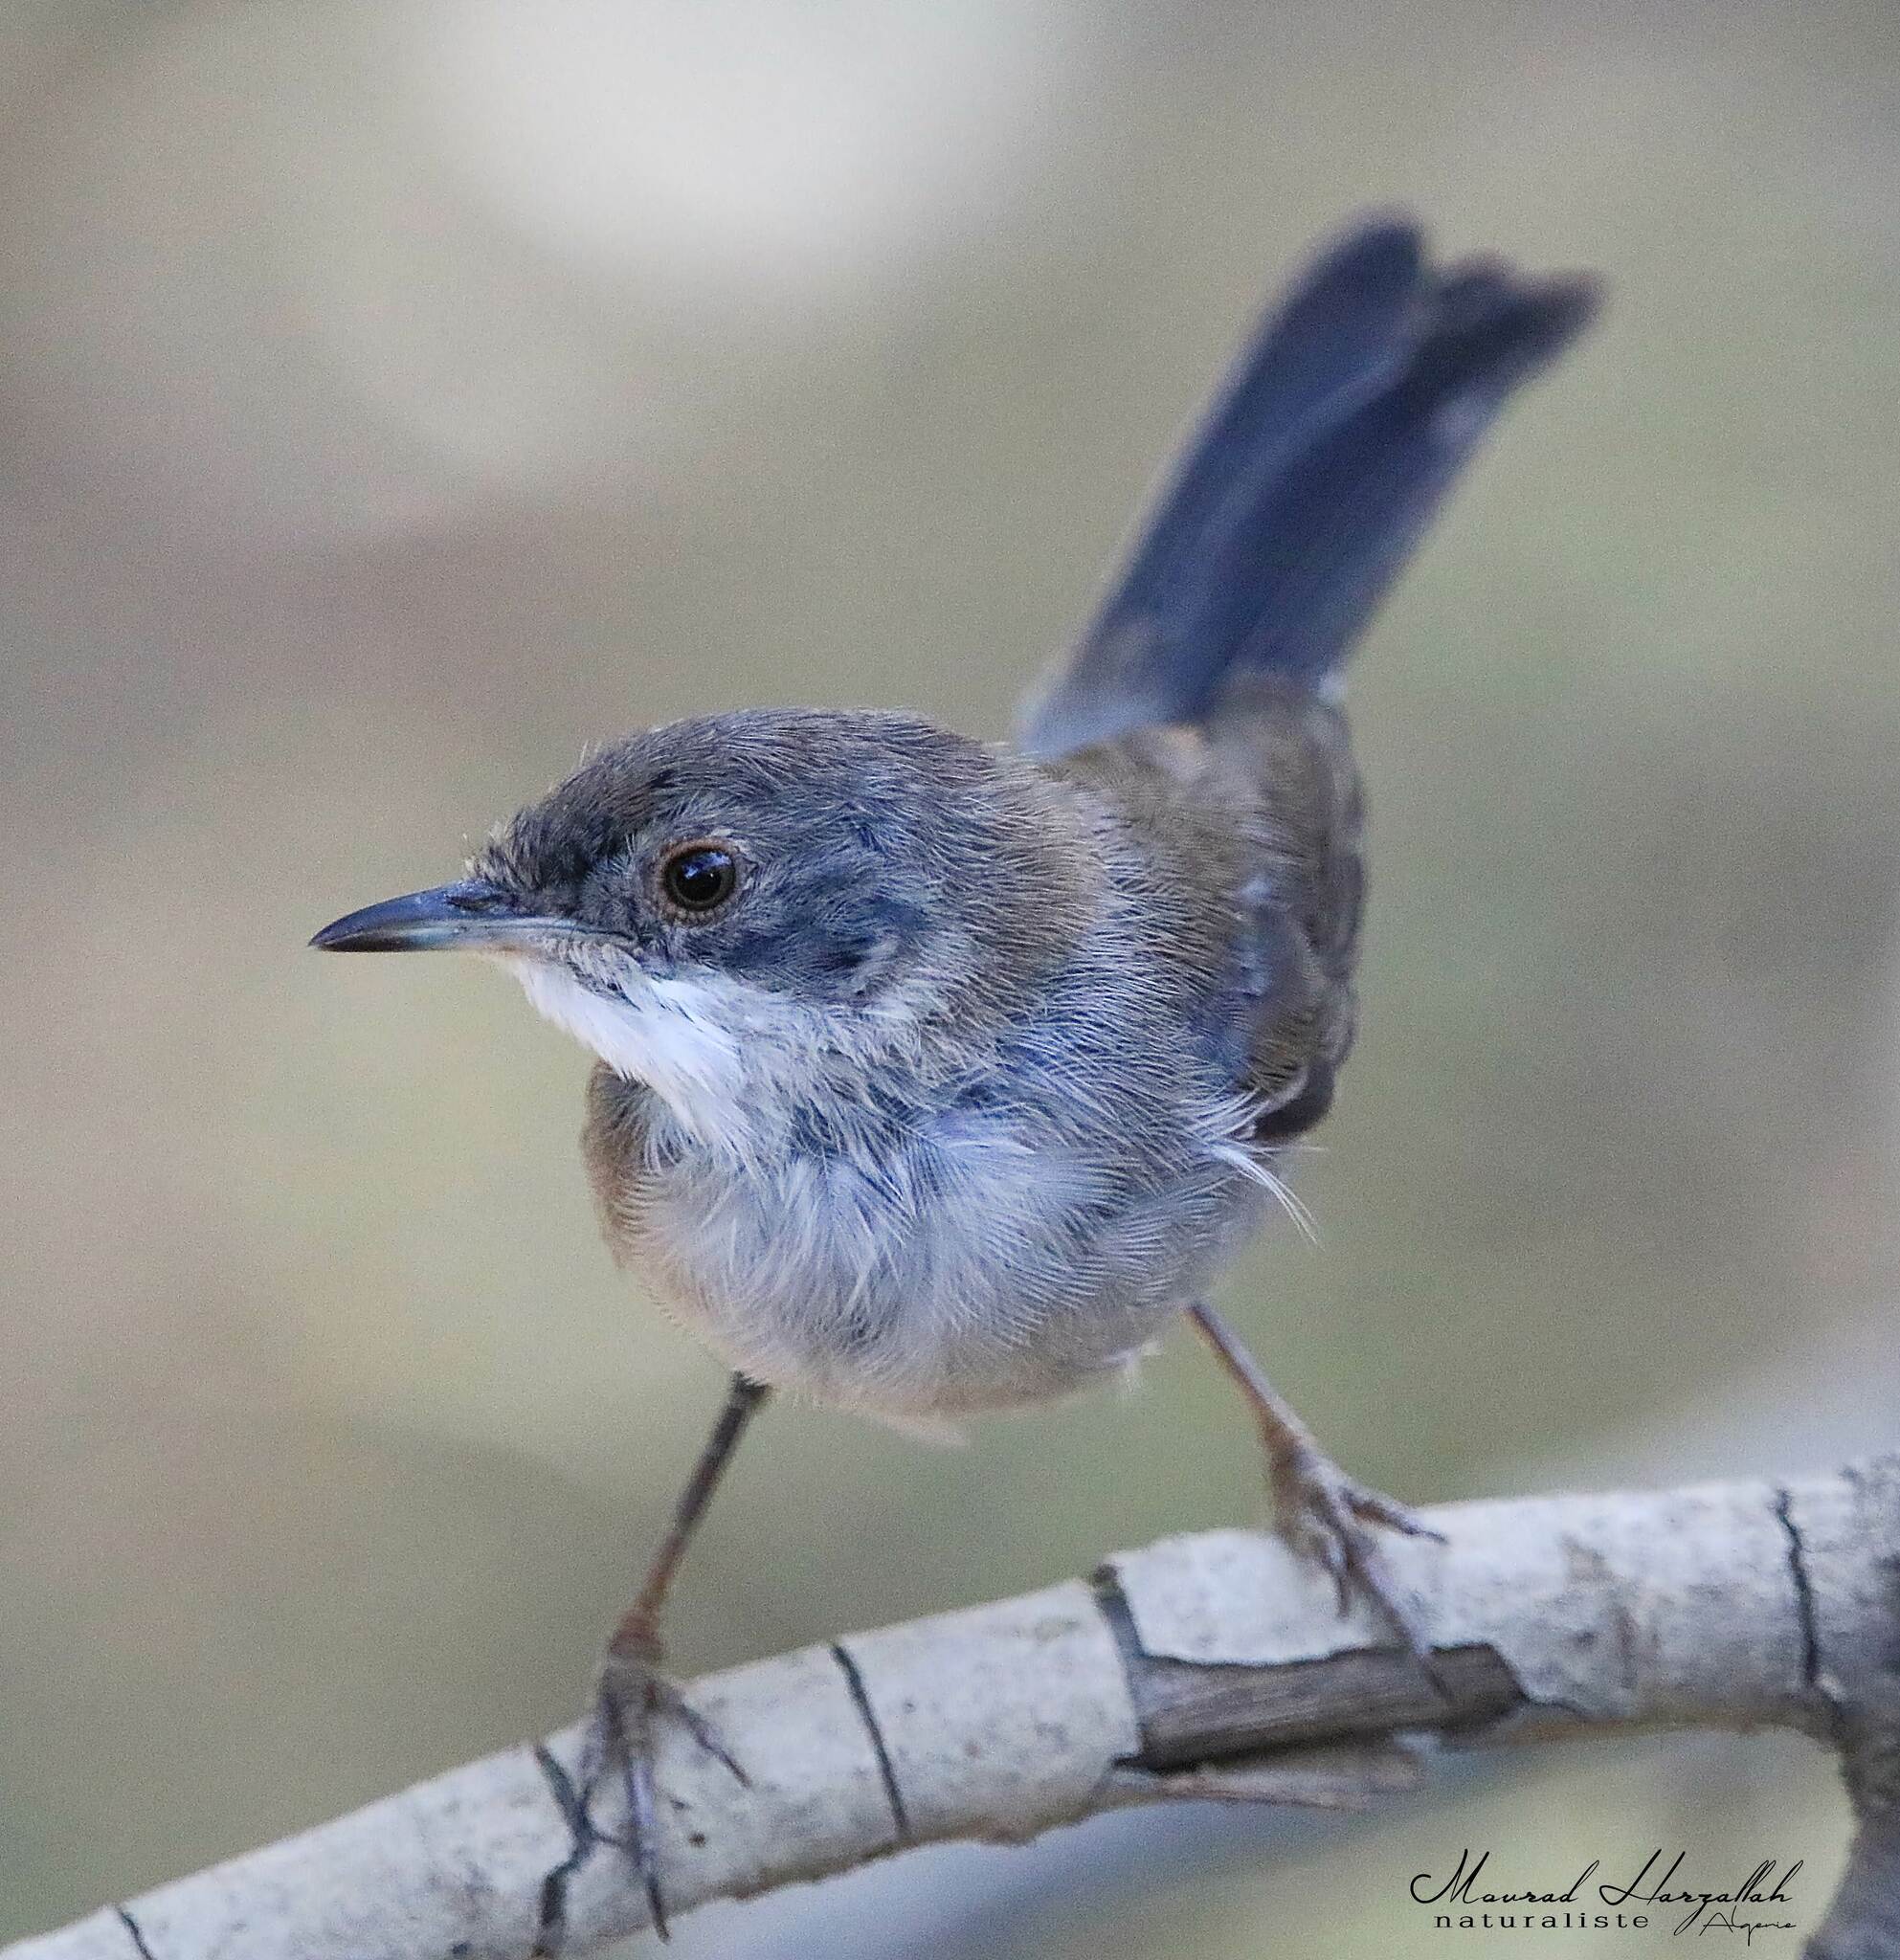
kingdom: Animalia
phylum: Chordata
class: Aves
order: Passeriformes
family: Sylviidae
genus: Curruca
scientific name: Curruca melanocephala
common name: Sardinian warbler
